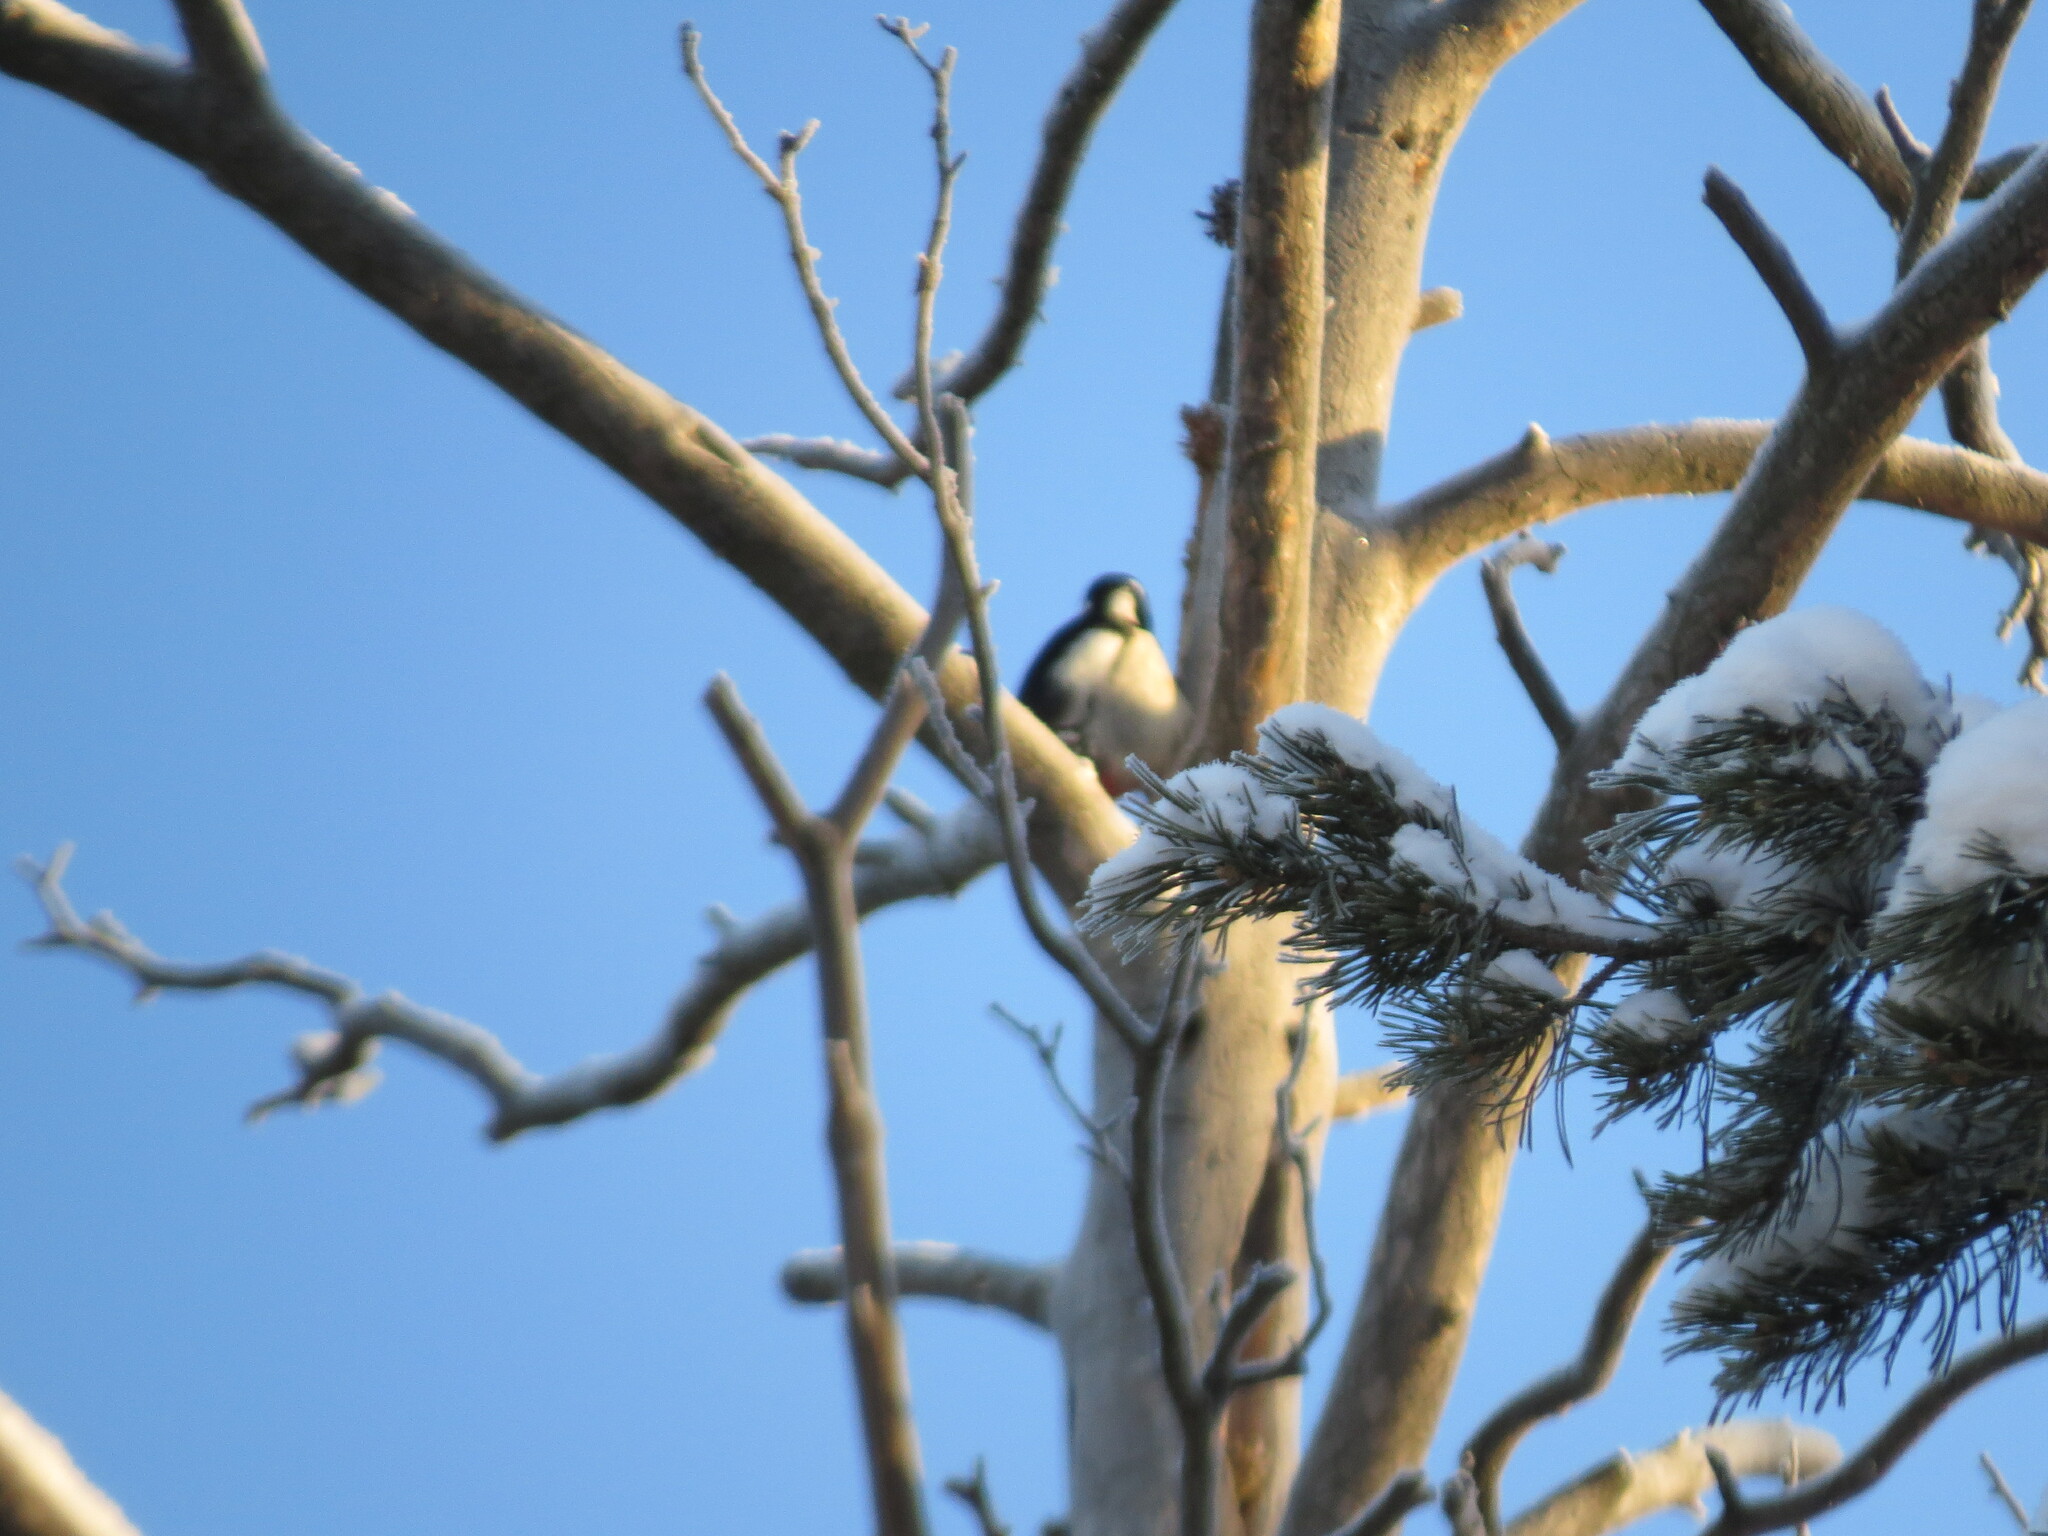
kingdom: Animalia
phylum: Chordata
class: Aves
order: Piciformes
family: Picidae
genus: Dendrocopos
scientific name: Dendrocopos major
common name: Great spotted woodpecker
